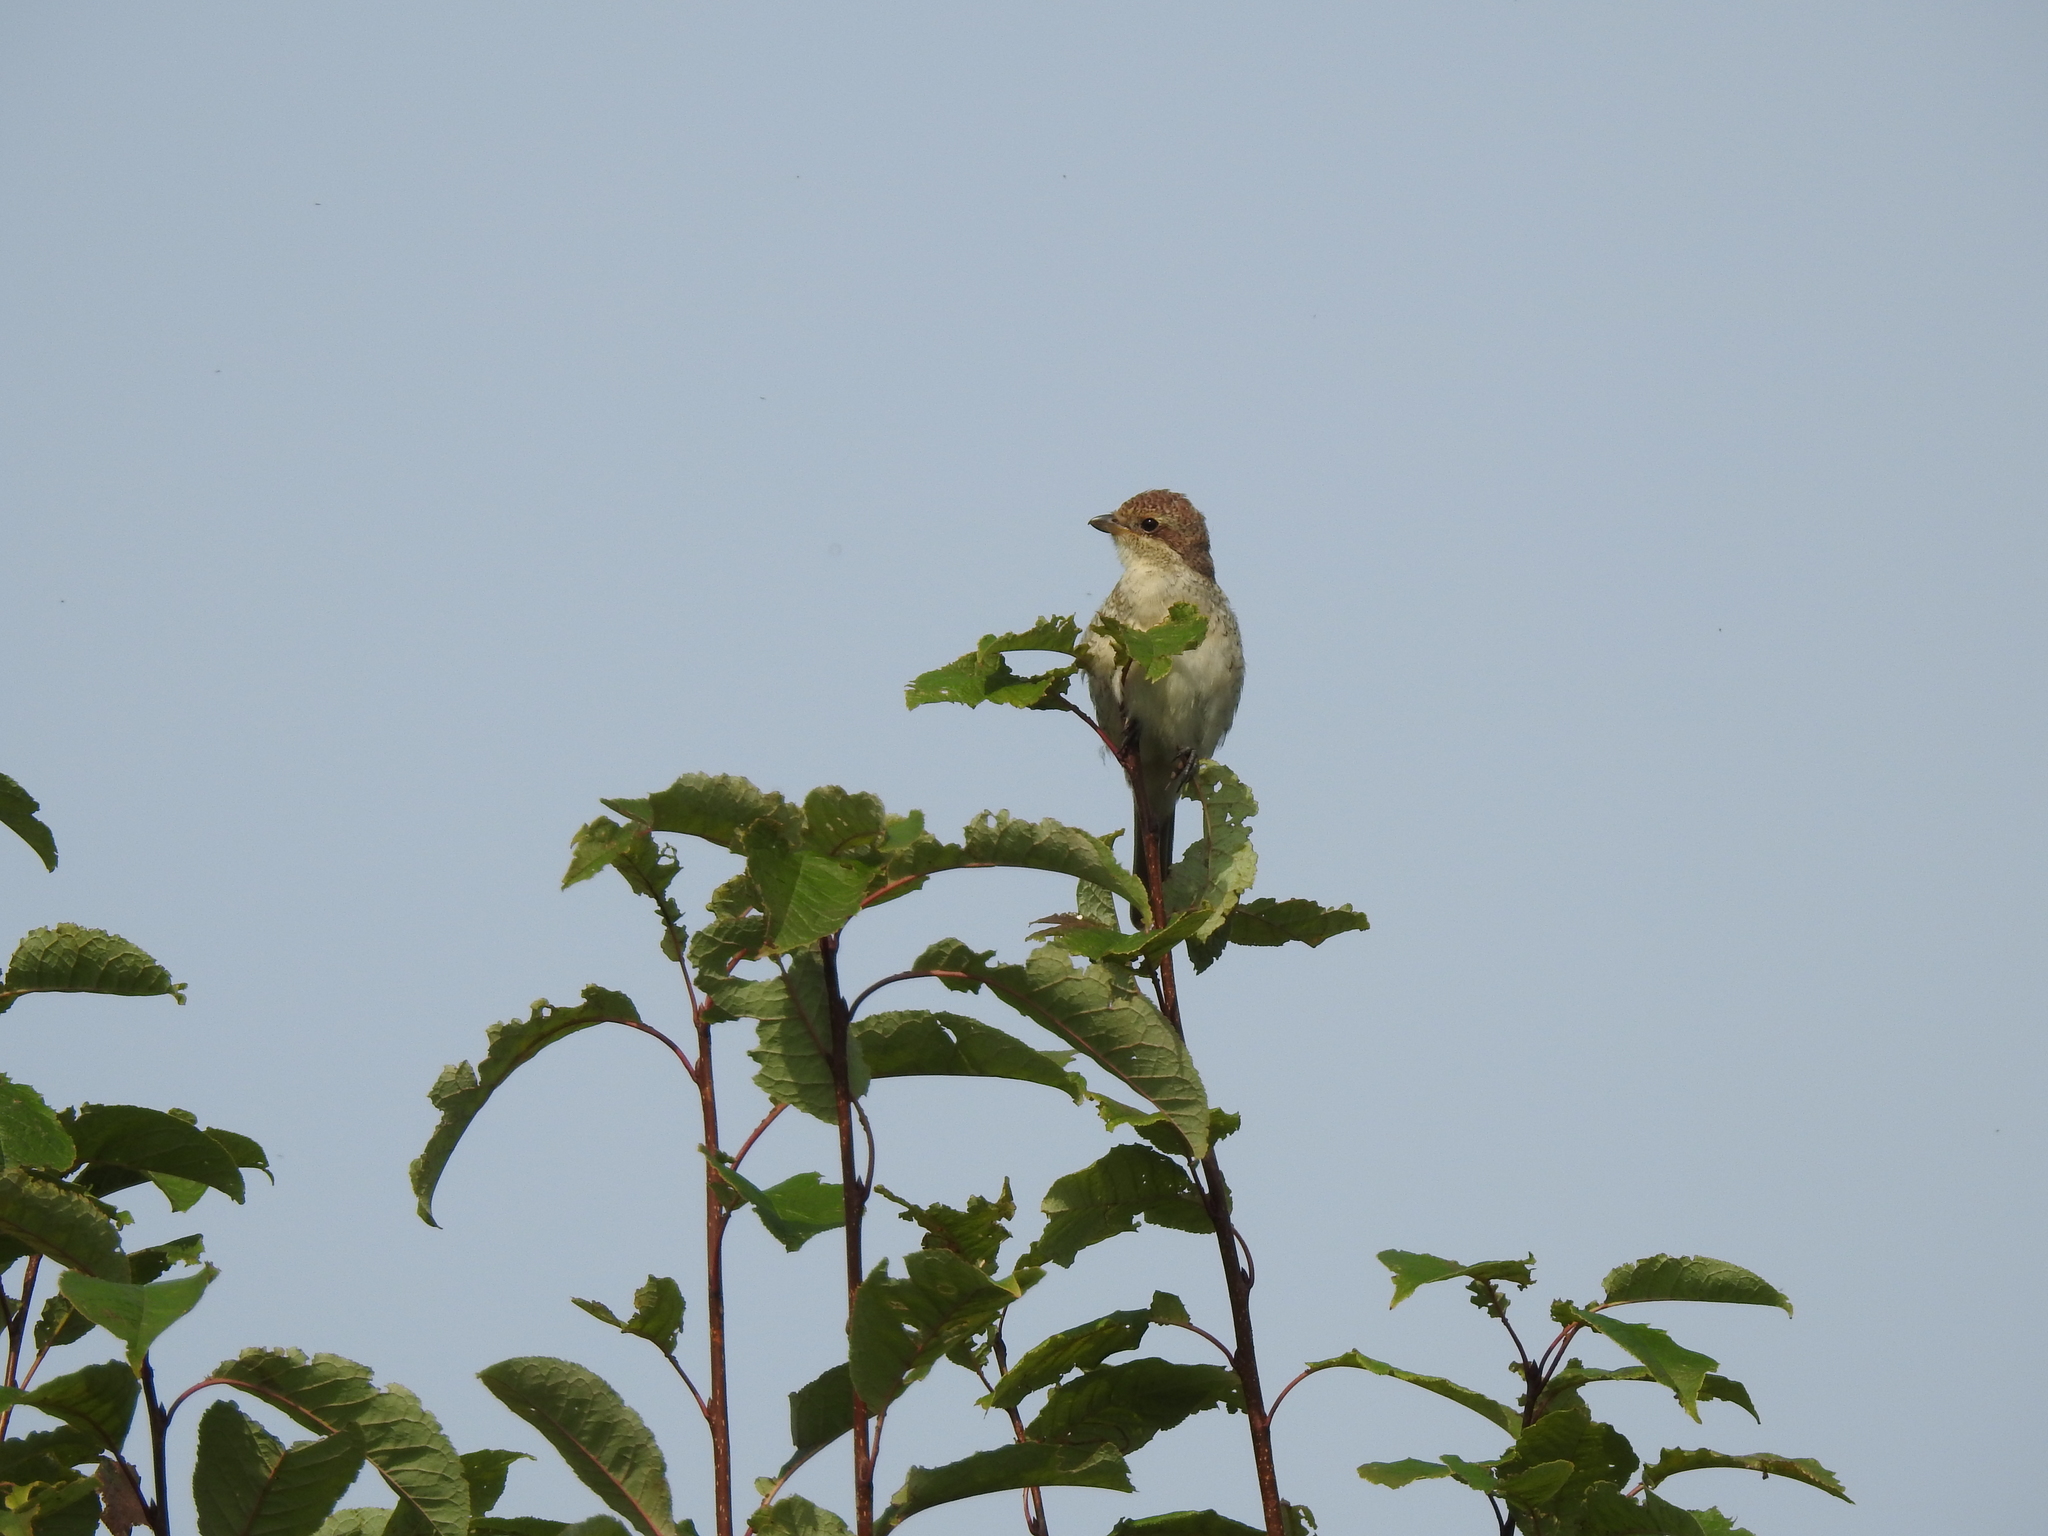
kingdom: Animalia
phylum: Chordata
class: Aves
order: Passeriformes
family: Laniidae
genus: Lanius
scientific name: Lanius collurio
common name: Red-backed shrike
